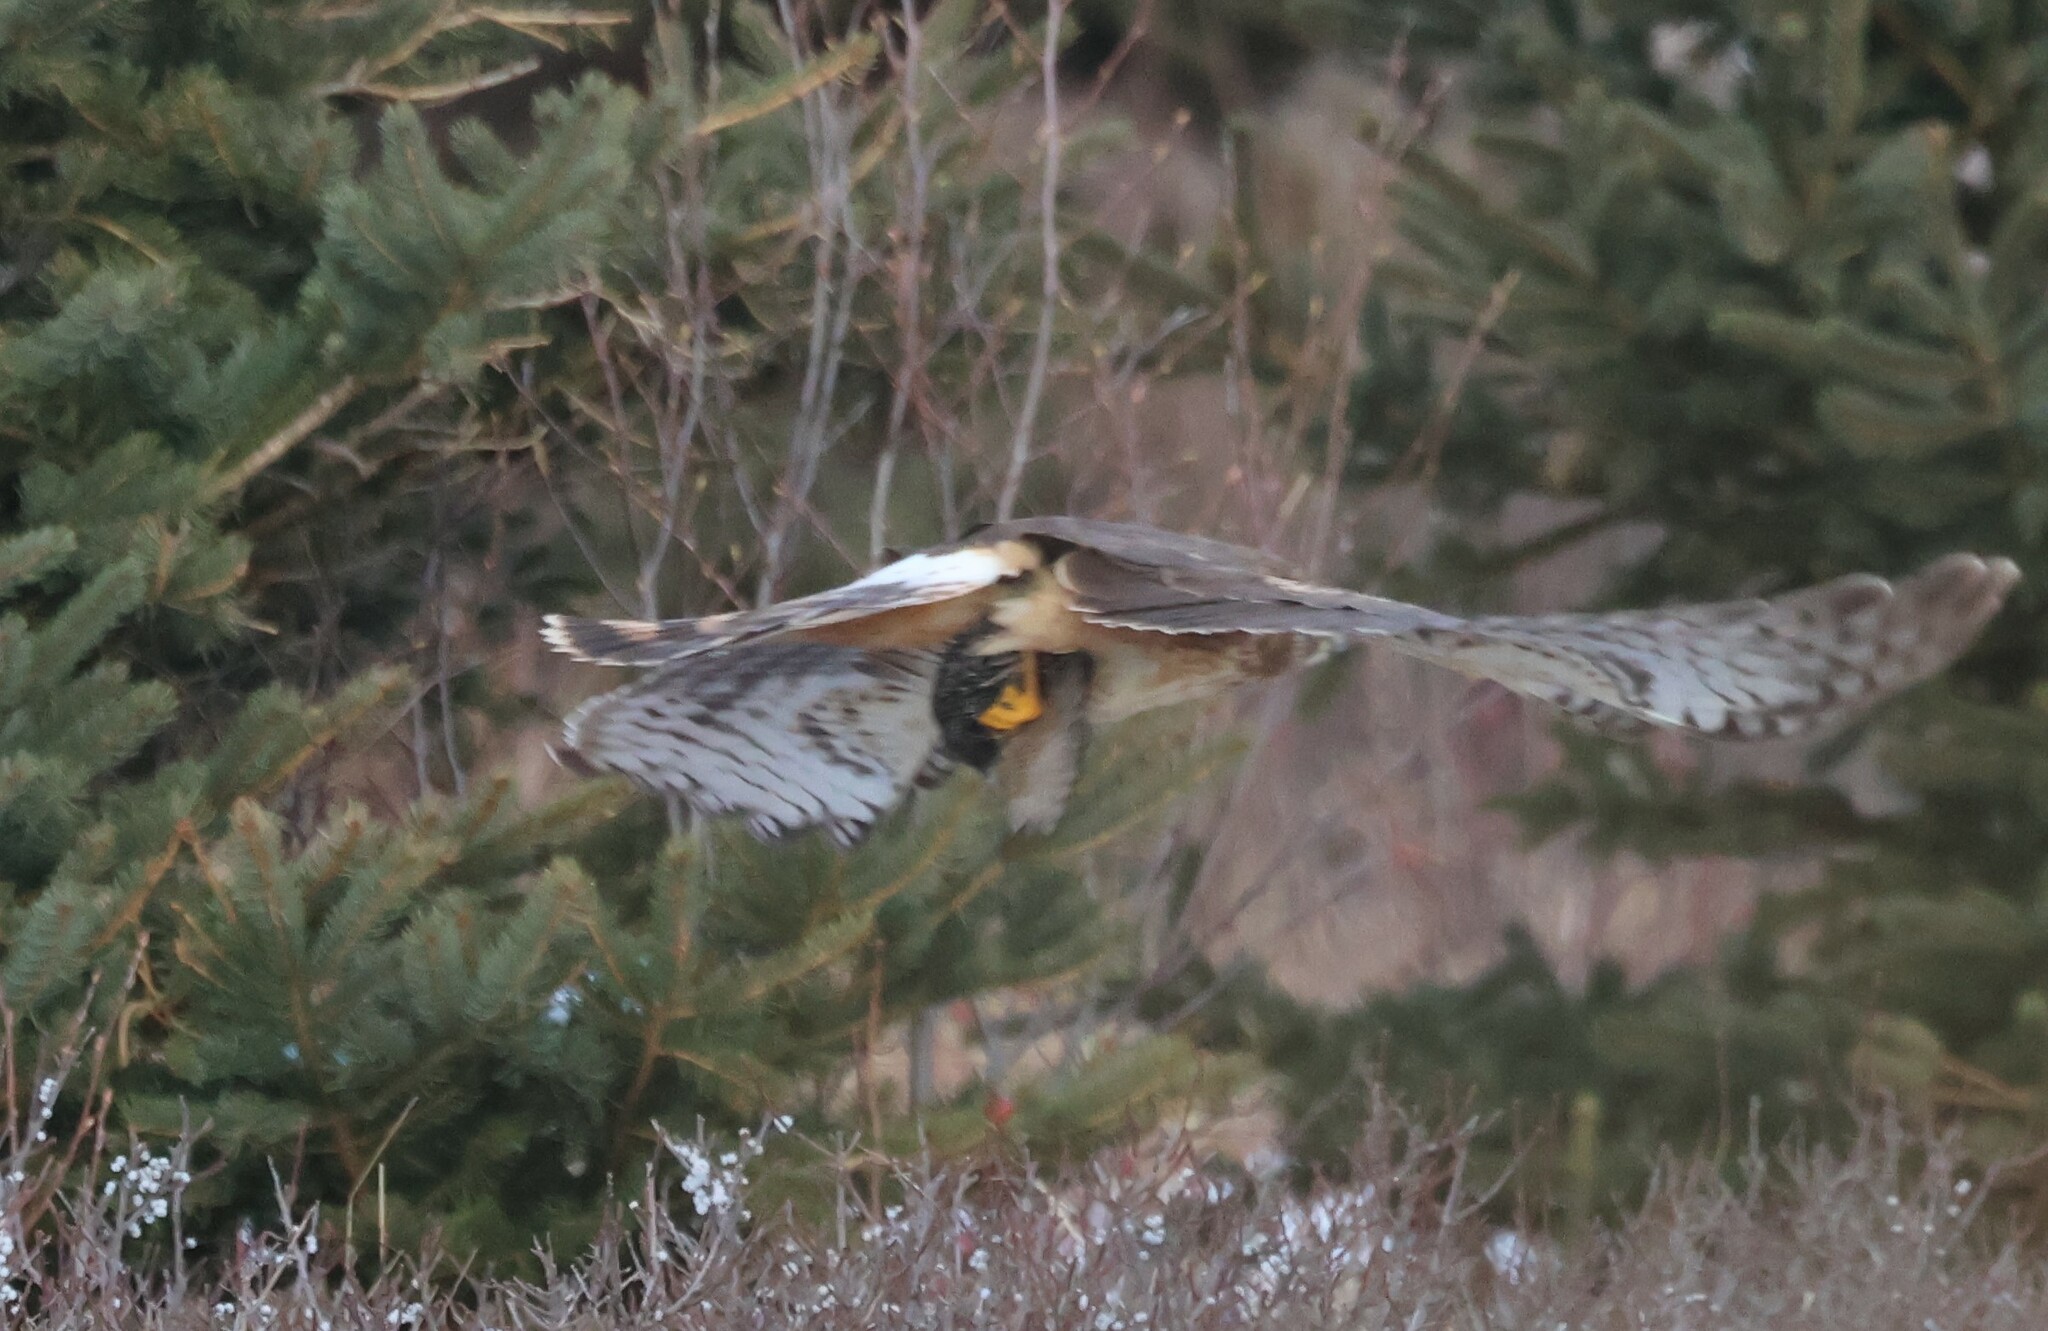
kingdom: Animalia
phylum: Chordata
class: Aves
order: Accipitriformes
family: Accipitridae
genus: Circus
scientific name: Circus cyaneus
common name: Hen harrier
